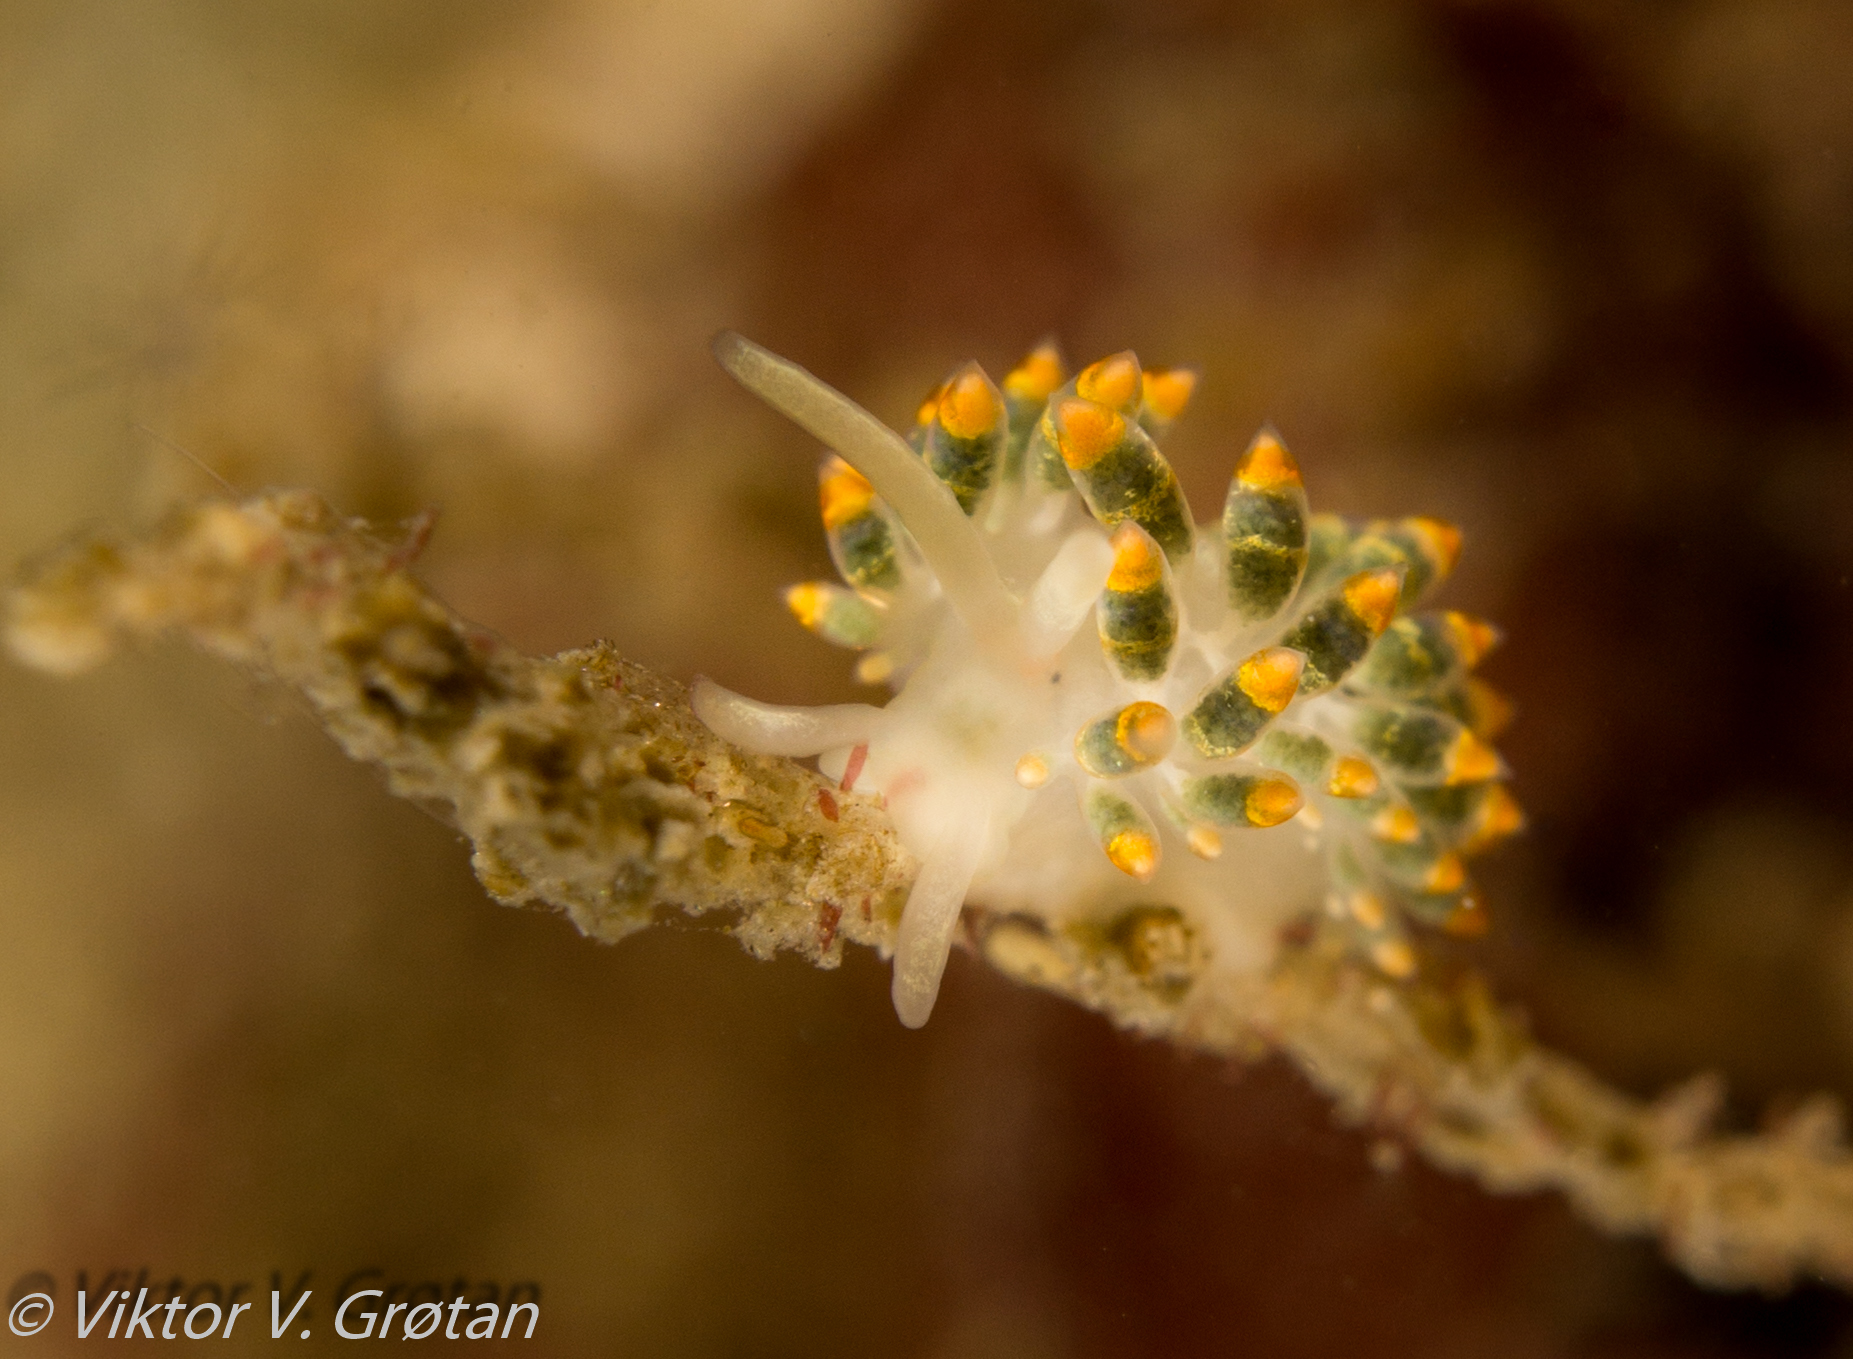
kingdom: Animalia
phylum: Mollusca
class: Gastropoda
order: Nudibranchia
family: Trinchesiidae
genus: Trinchesia
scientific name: Trinchesia cuanensis
